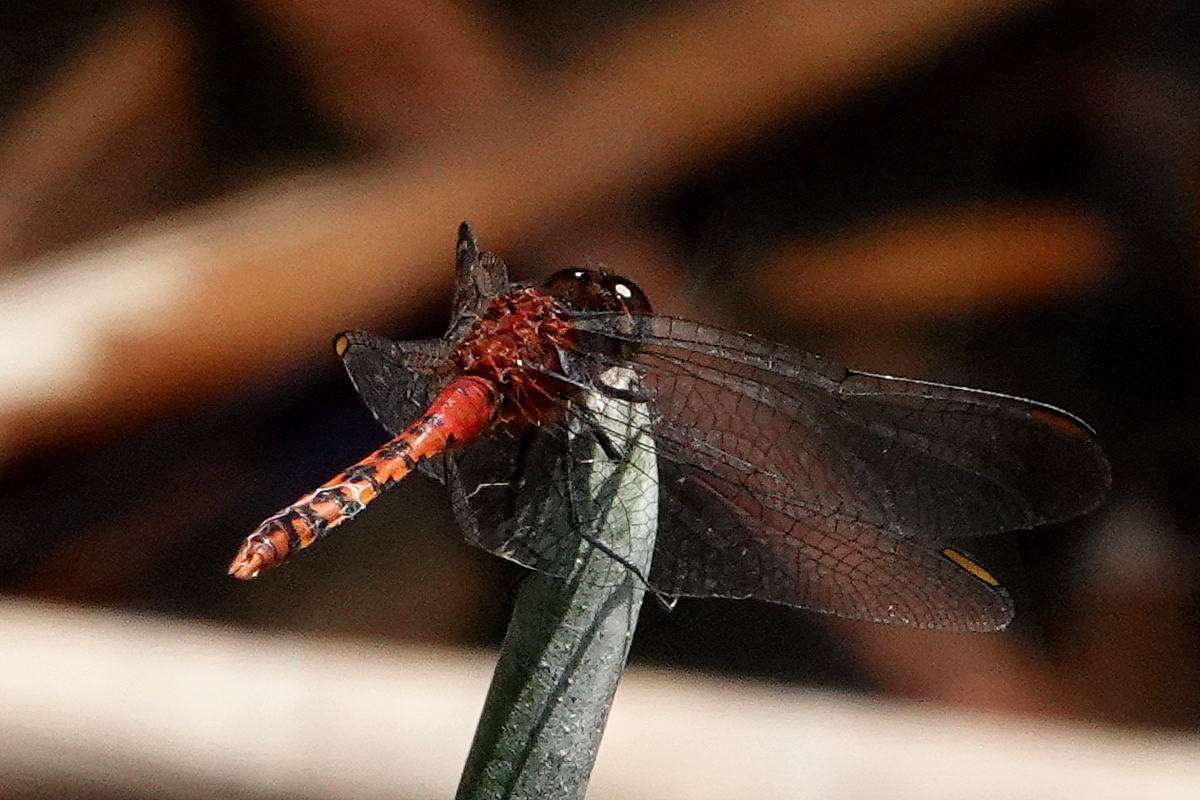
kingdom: Animalia
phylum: Arthropoda
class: Insecta
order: Odonata
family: Libellulidae
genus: Diplacodes
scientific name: Diplacodes melanopsis
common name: Black-faced percher
